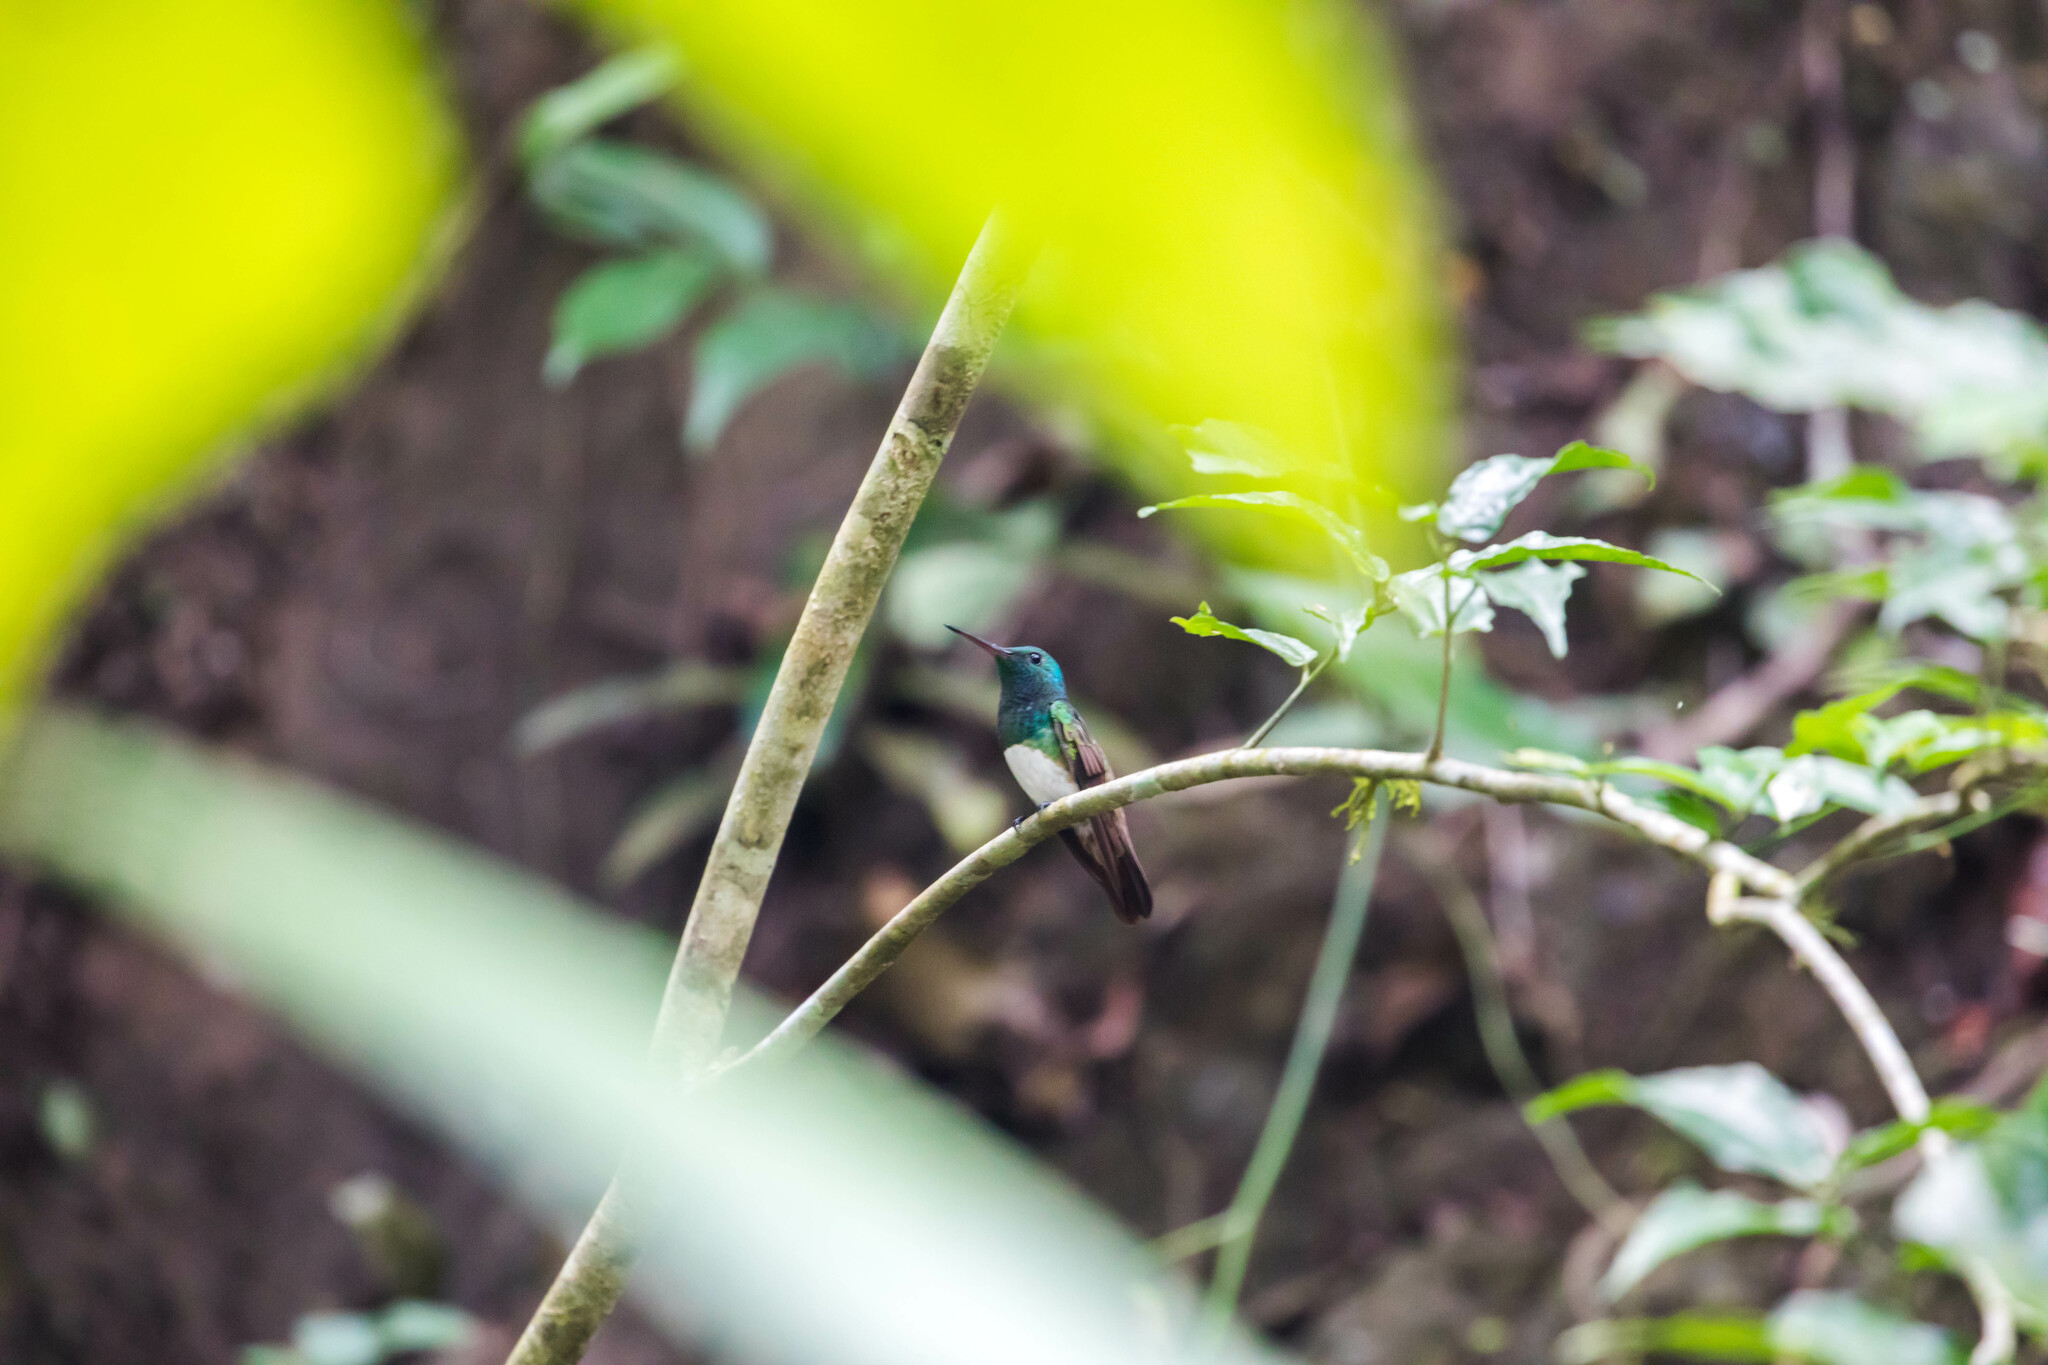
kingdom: Animalia
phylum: Chordata
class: Aves
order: Apodiformes
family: Trochilidae
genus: Saucerottia
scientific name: Saucerottia edward
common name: Snowy-bellied hummingbird
